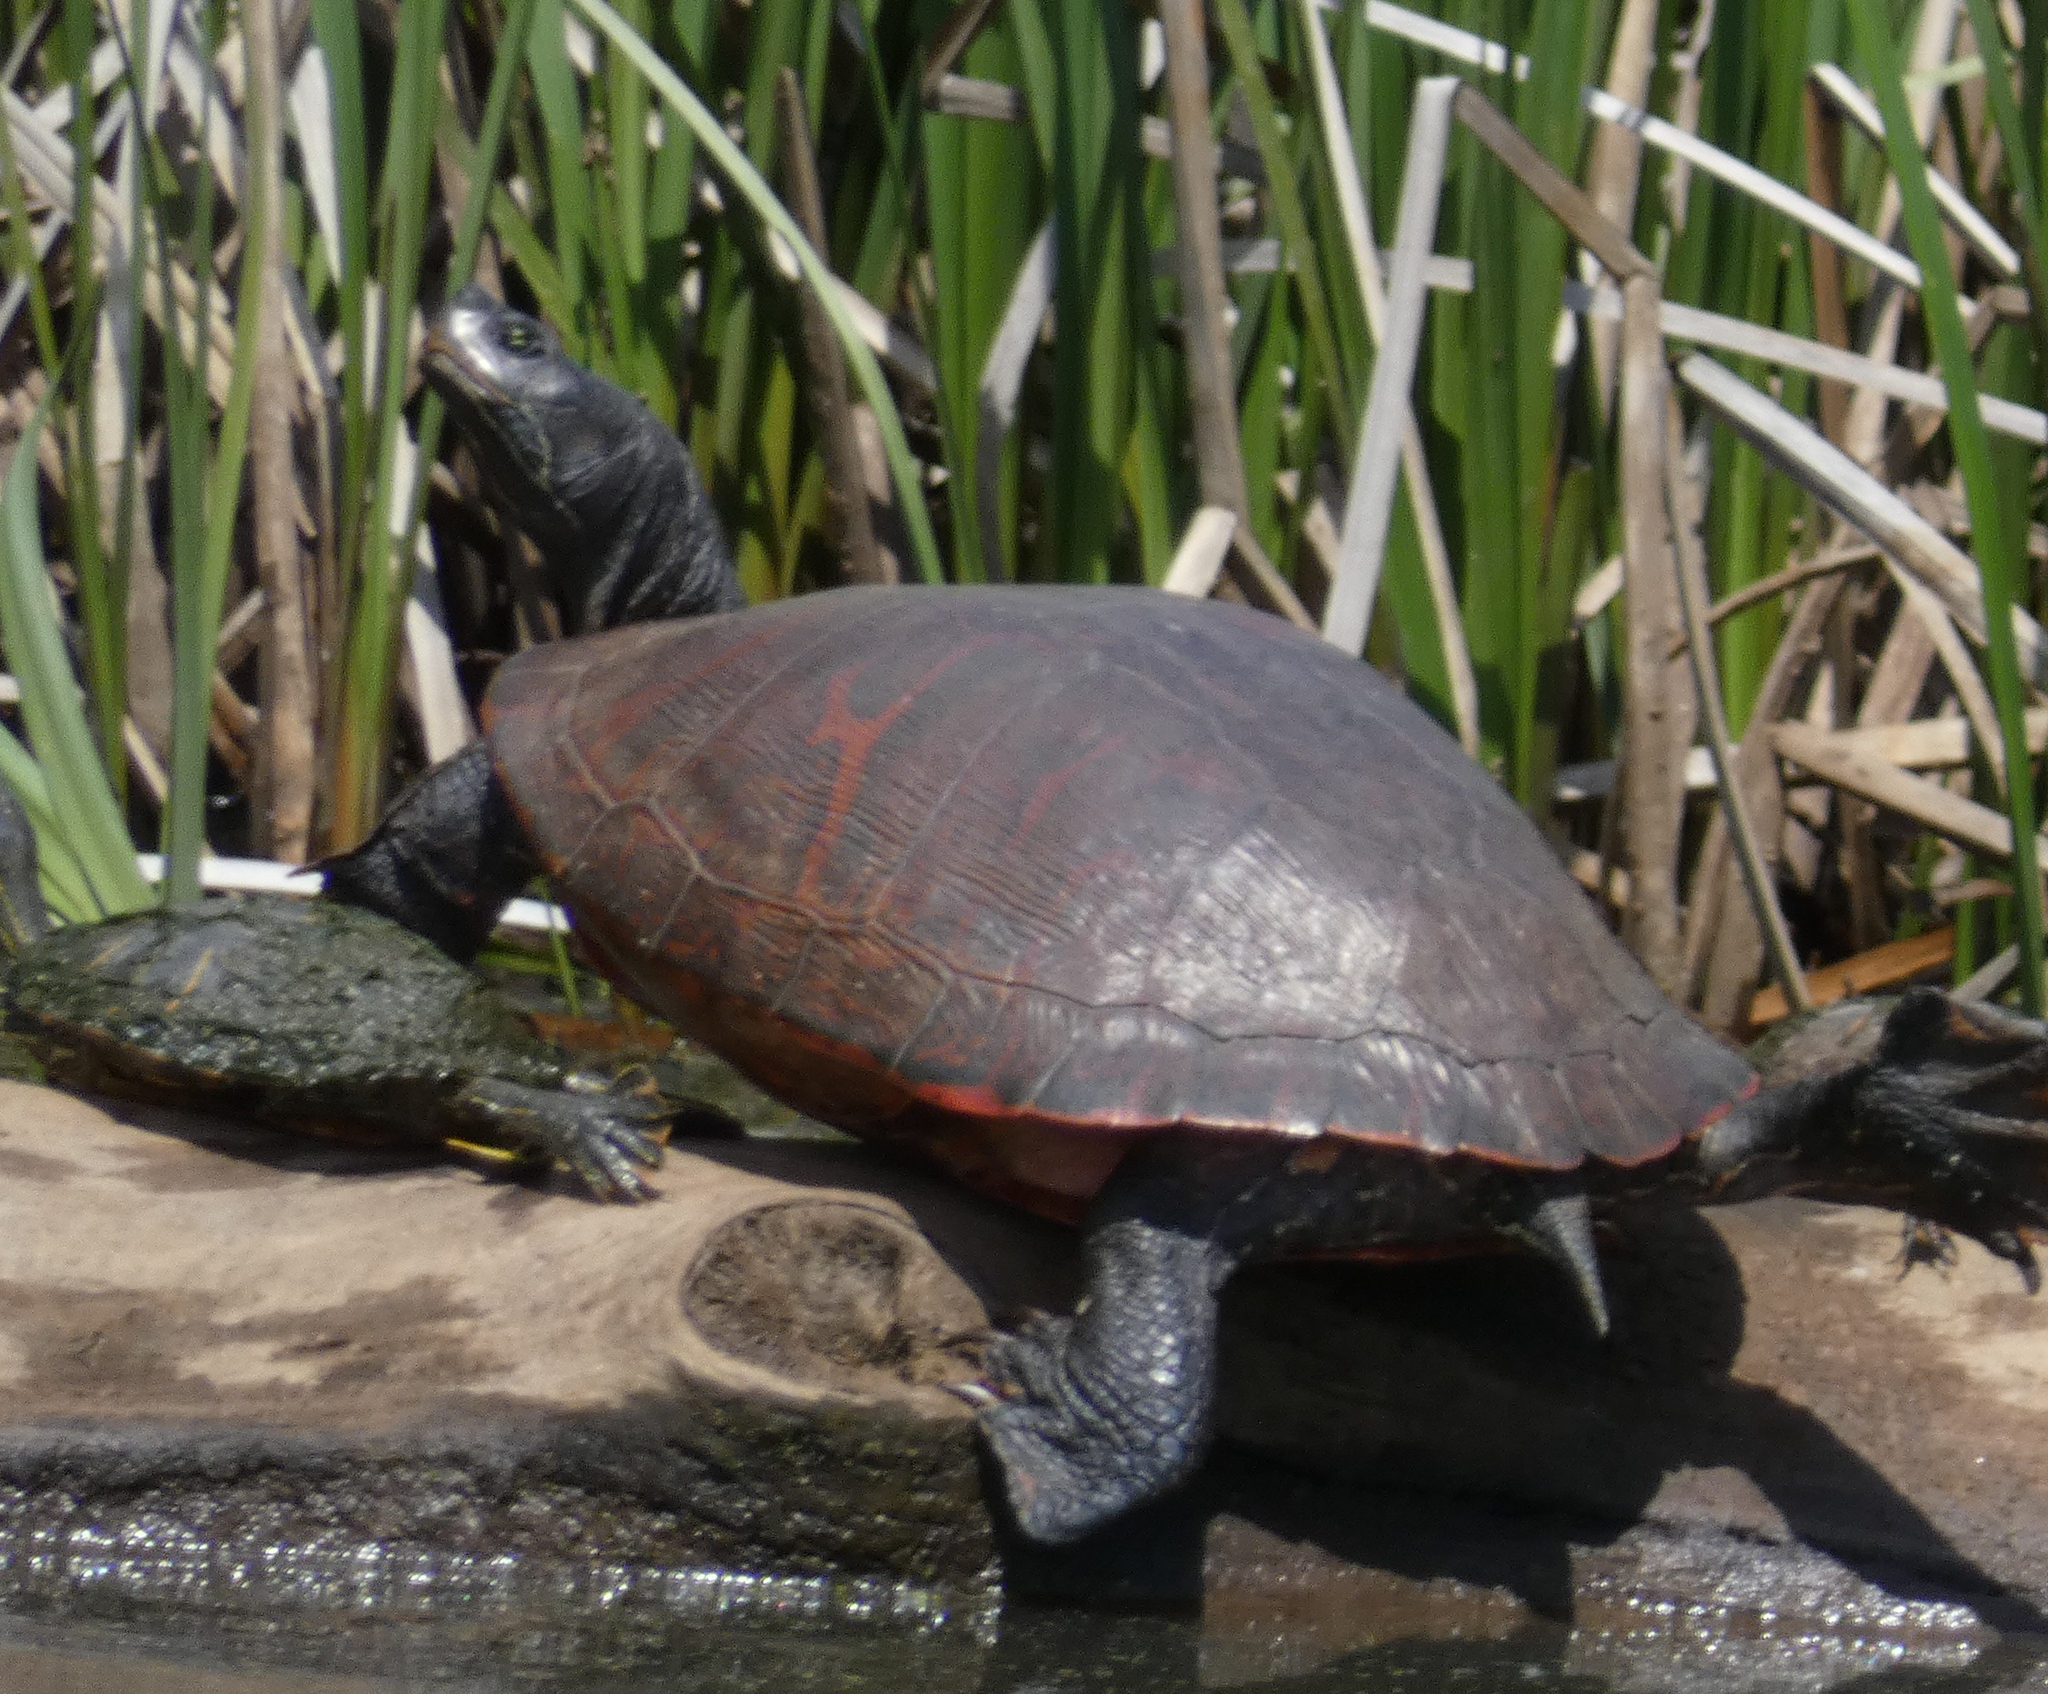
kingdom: Animalia
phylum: Chordata
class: Testudines
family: Emydidae
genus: Pseudemys
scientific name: Pseudemys rubriventris
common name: American red-bellied turtle
